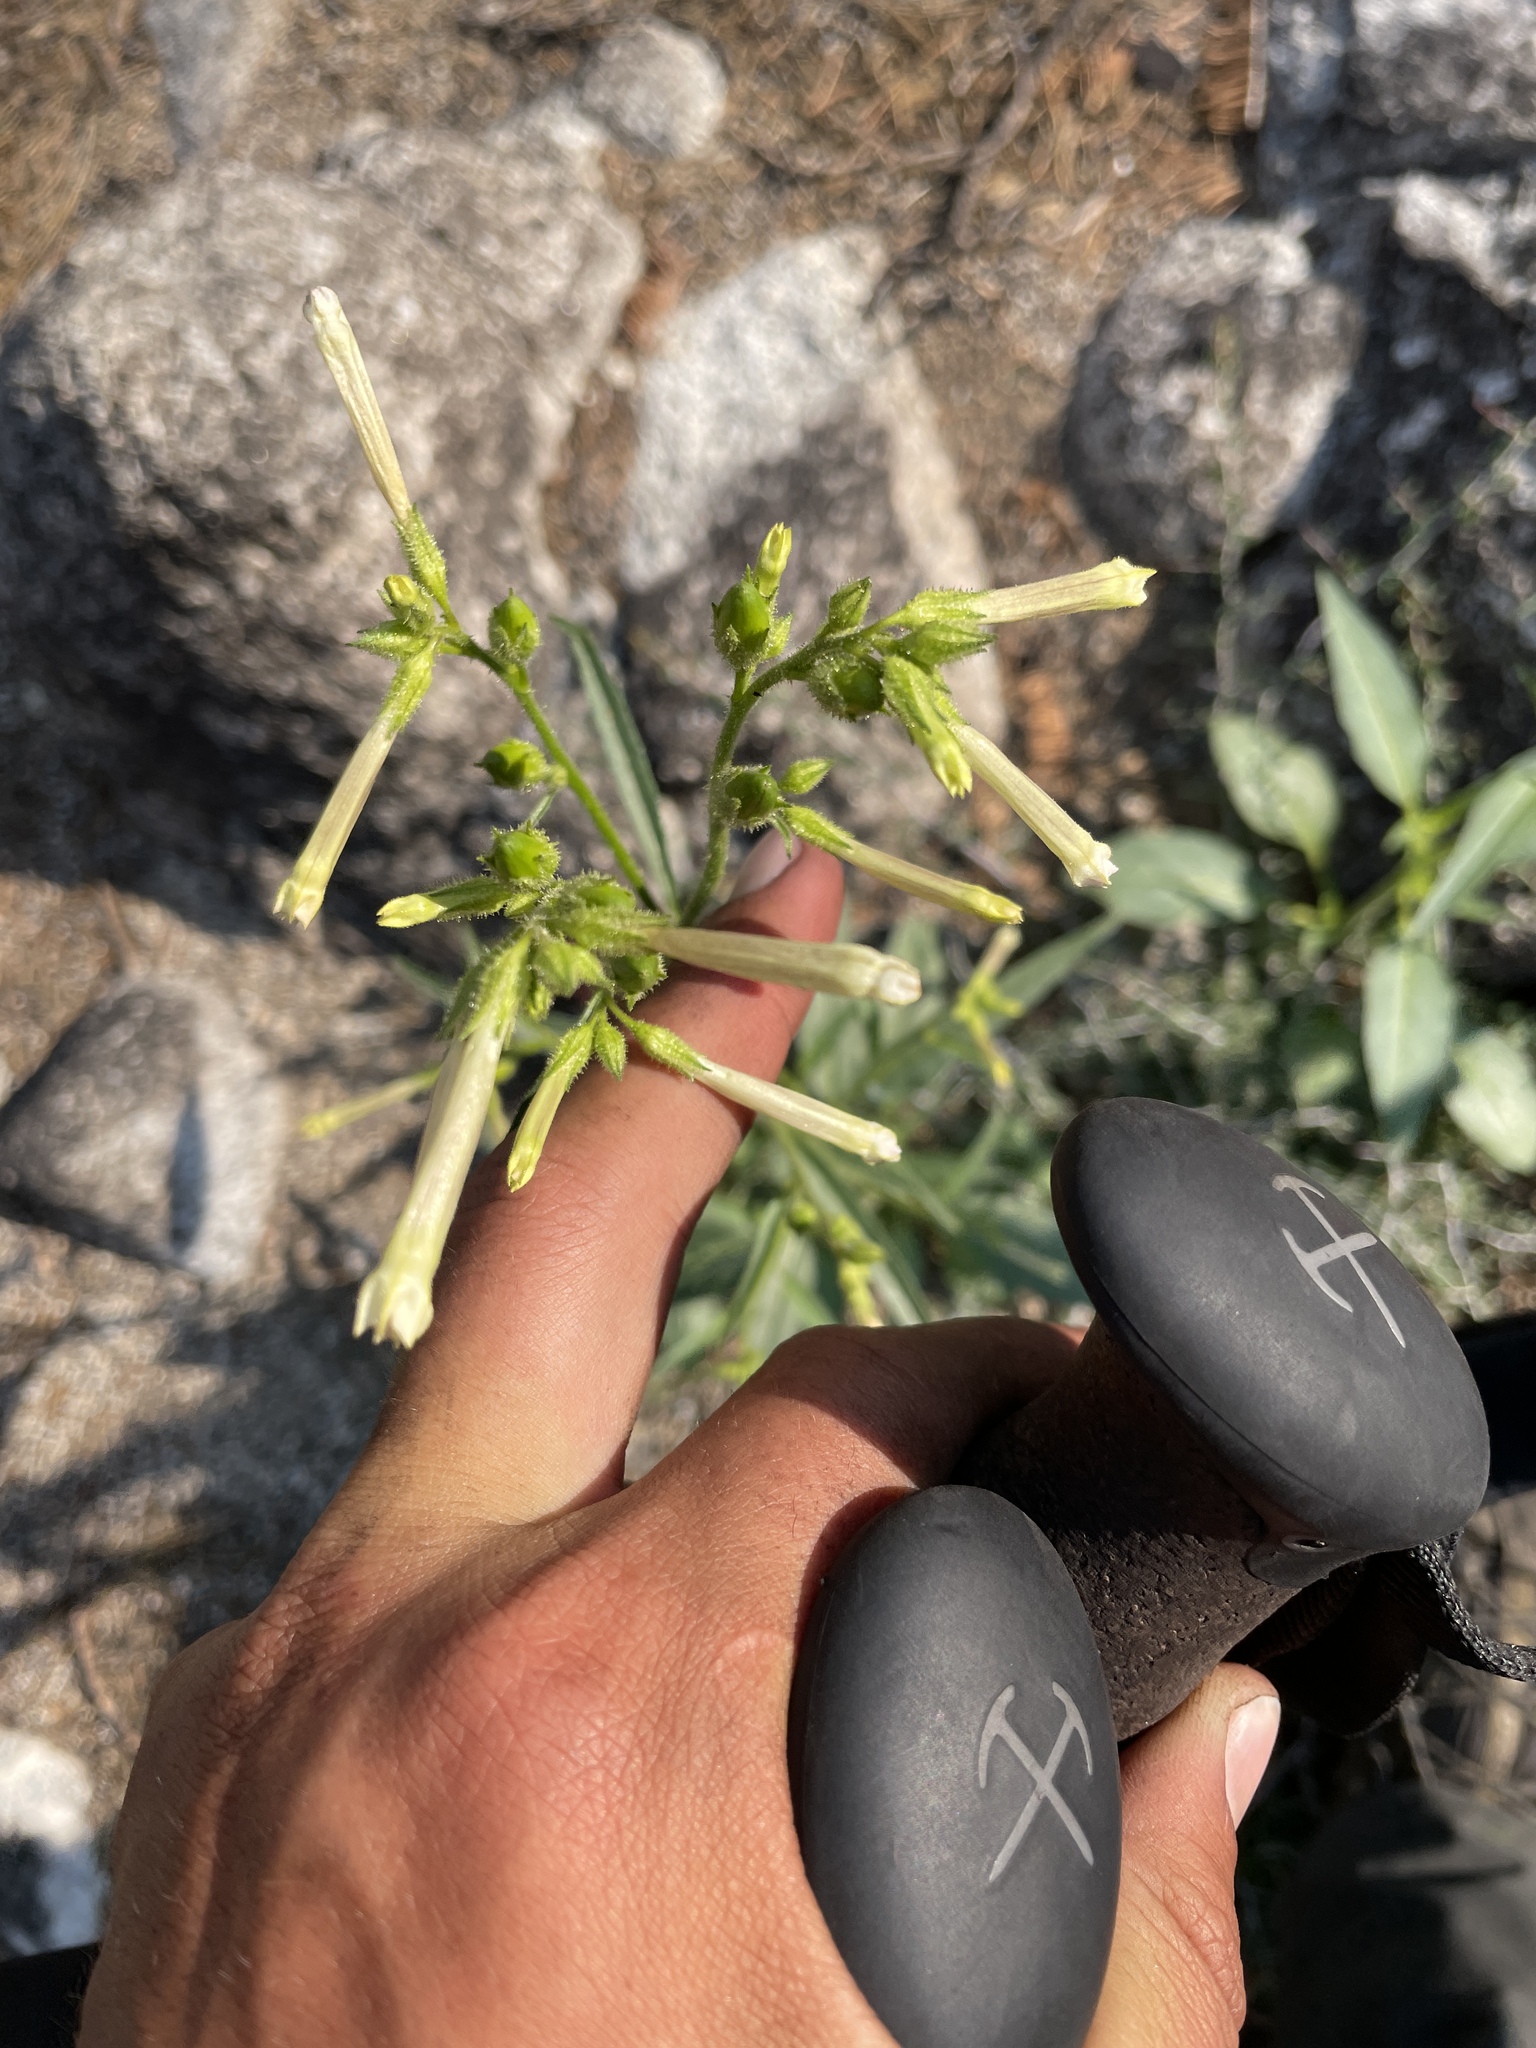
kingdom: Plantae
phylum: Tracheophyta
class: Magnoliopsida
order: Solanales
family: Solanaceae
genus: Nicotiana
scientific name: Nicotiana attenuata
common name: Coyote tobacco
